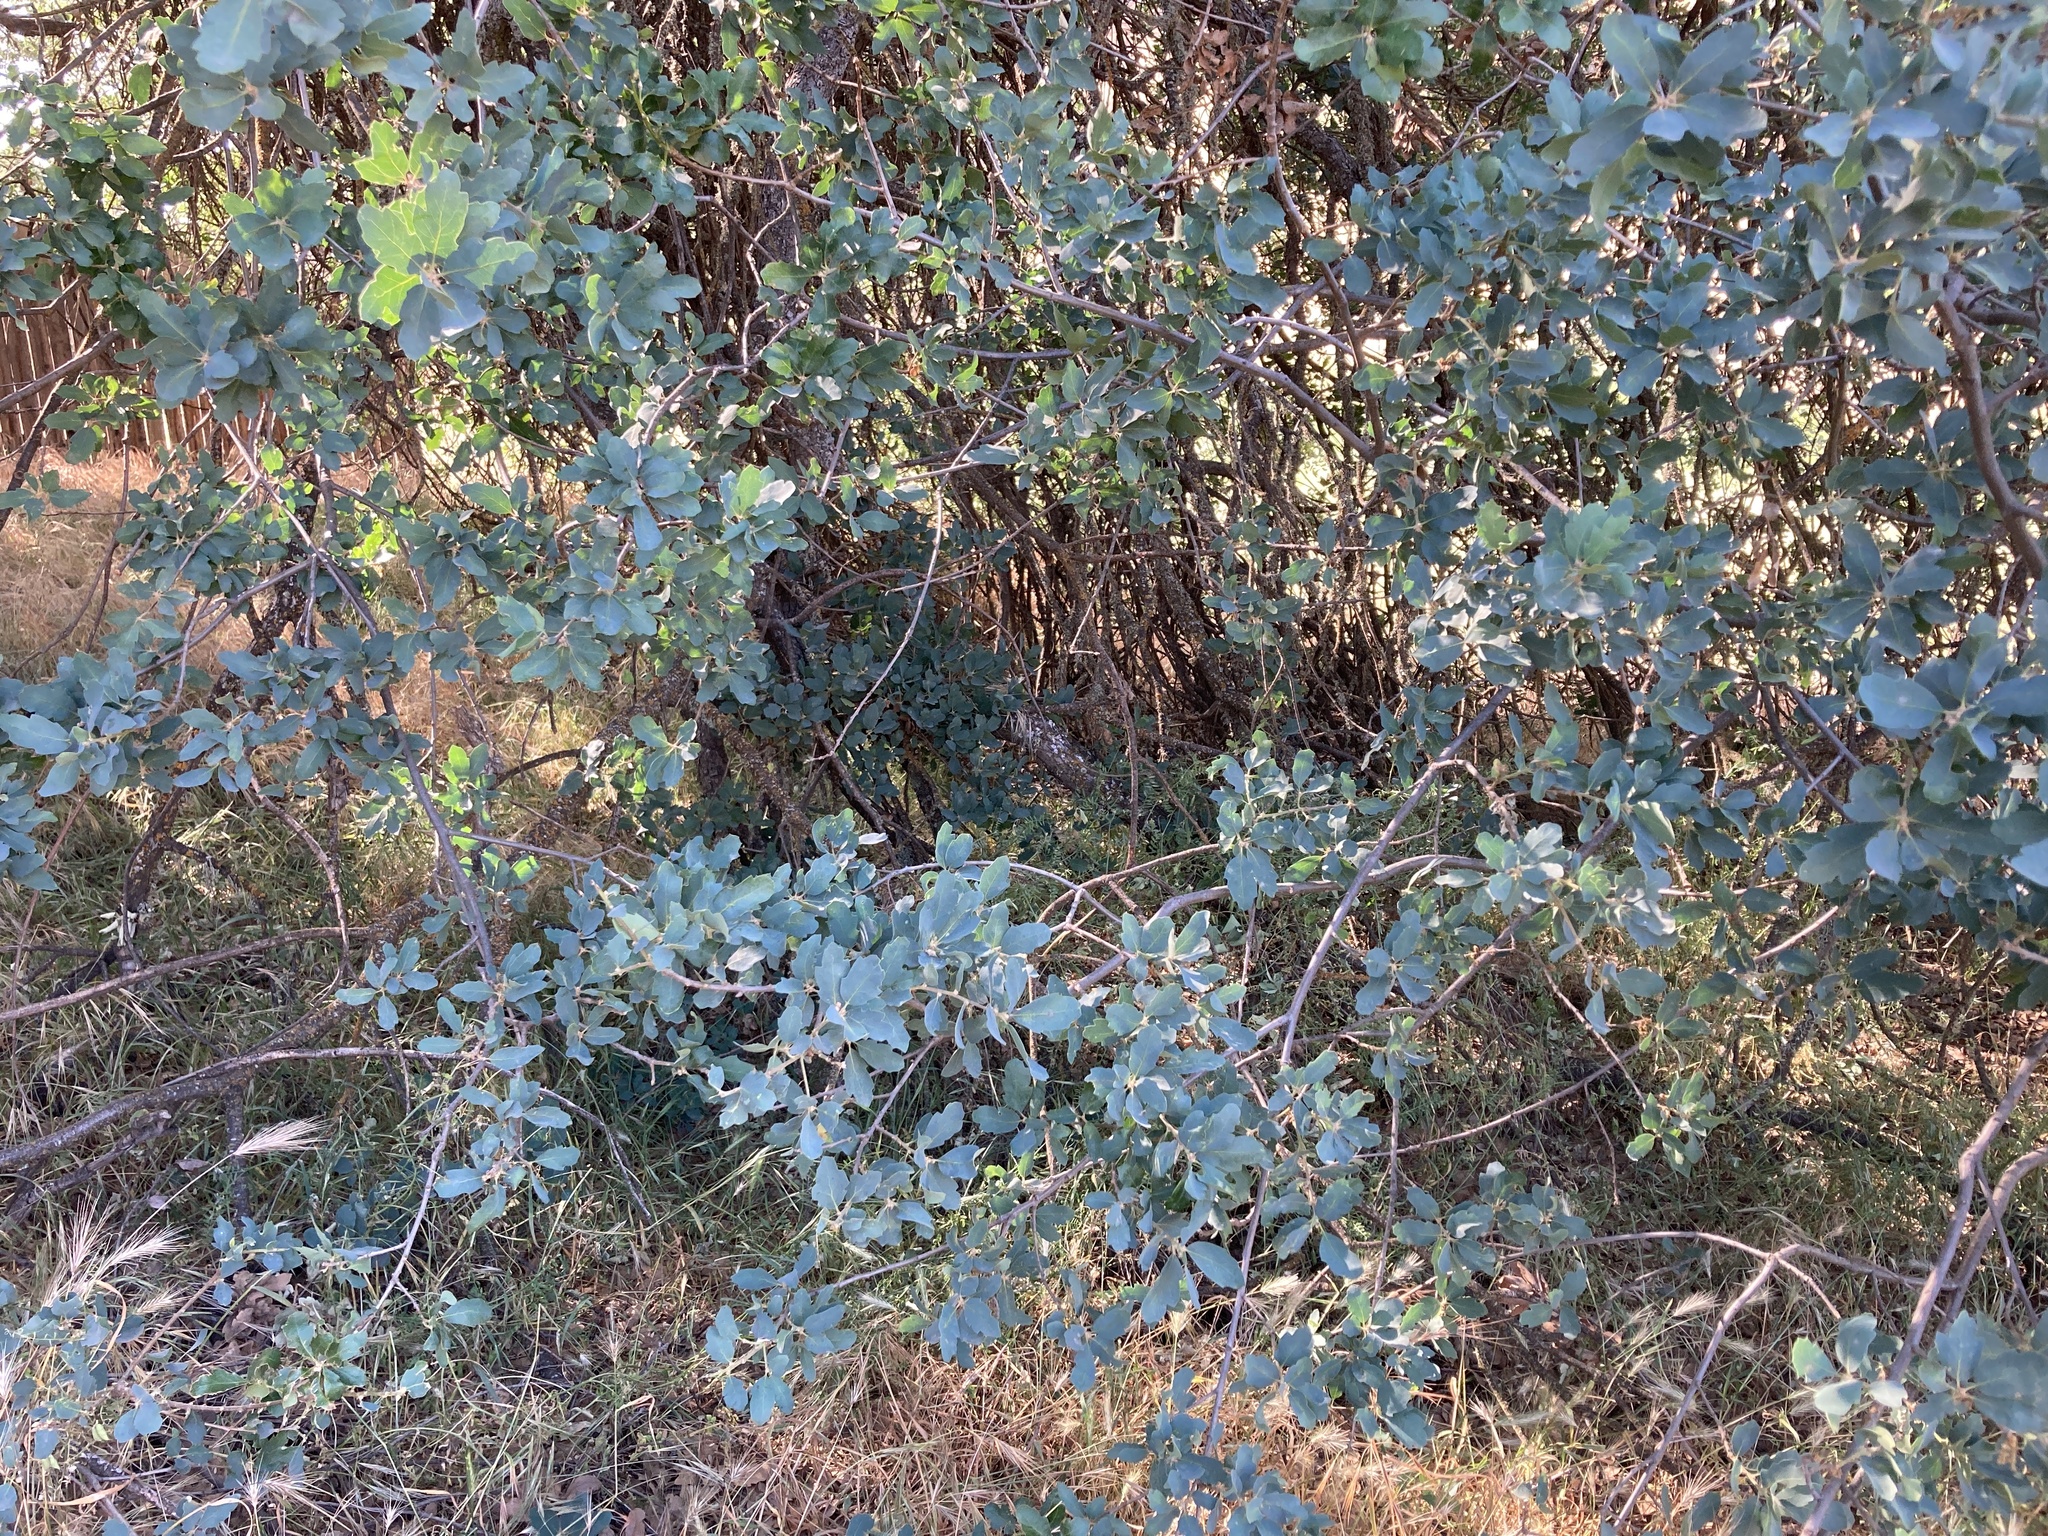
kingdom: Animalia
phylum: Chordata
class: Aves
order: Passeriformes
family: Passerellidae
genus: Melozone
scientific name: Melozone crissalis
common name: California towhee
